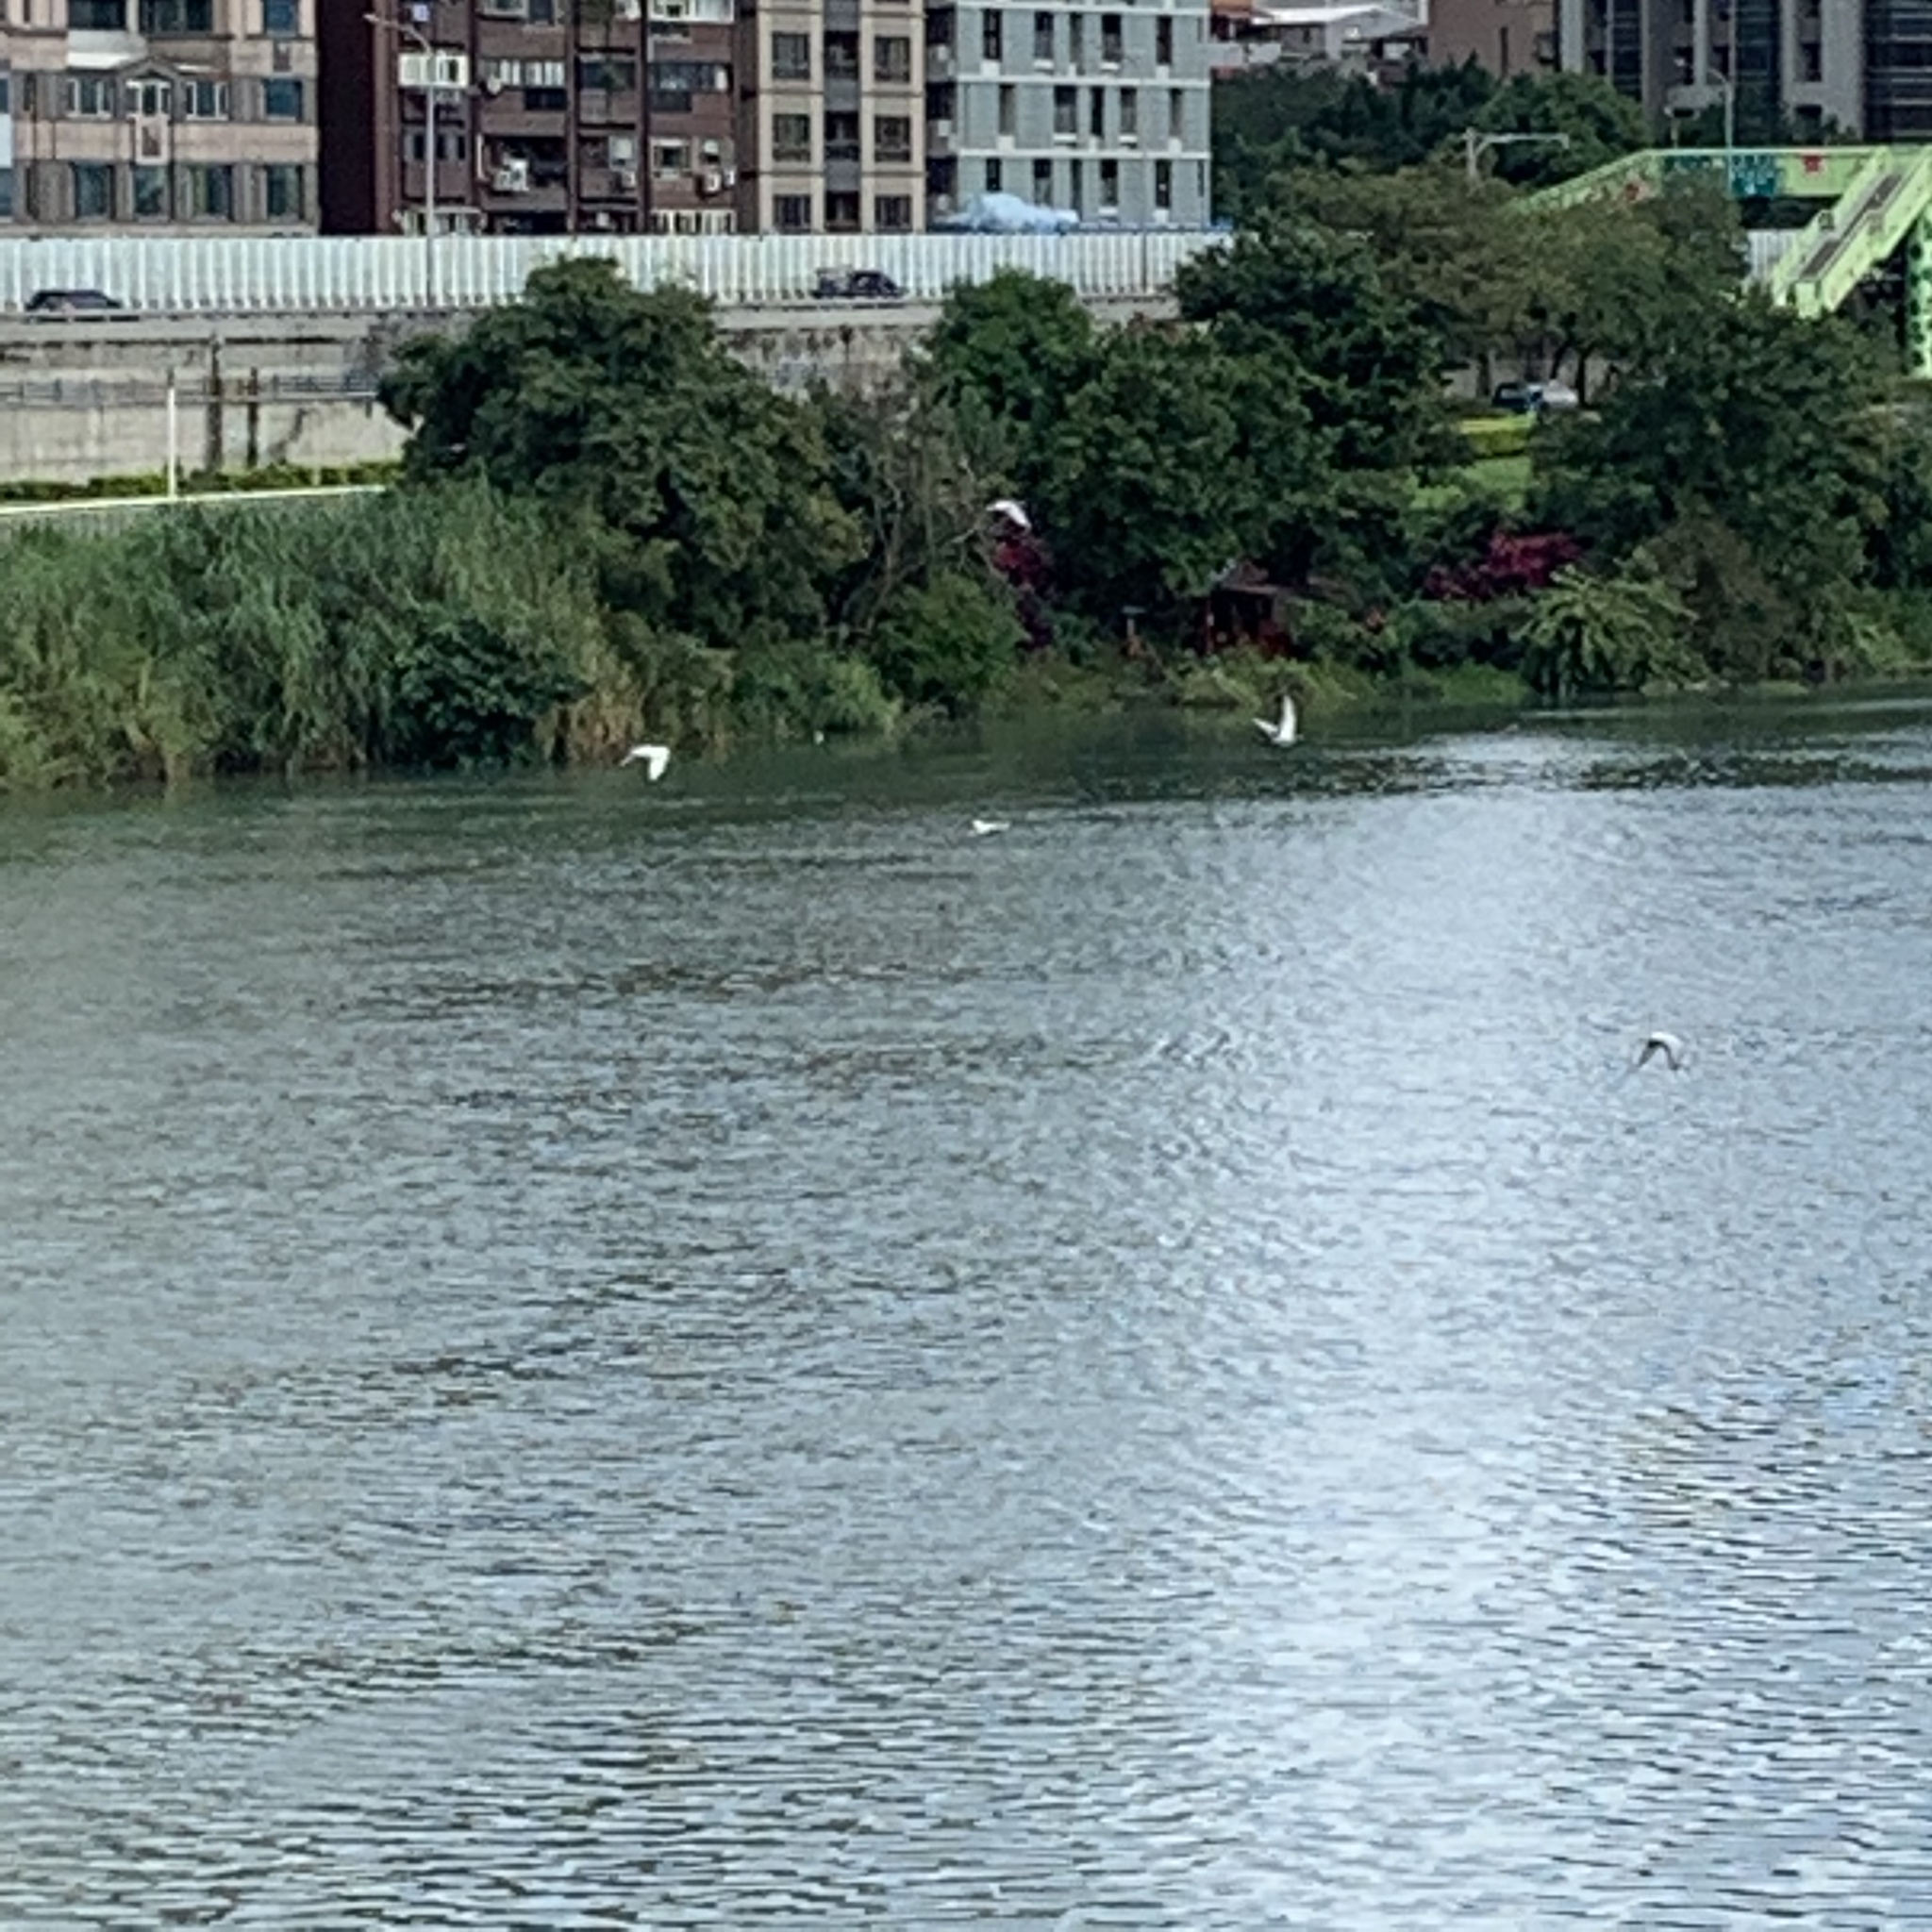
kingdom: Animalia
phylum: Chordata
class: Aves
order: Columbiformes
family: Columbidae
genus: Columba
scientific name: Columba livia
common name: Rock pigeon
